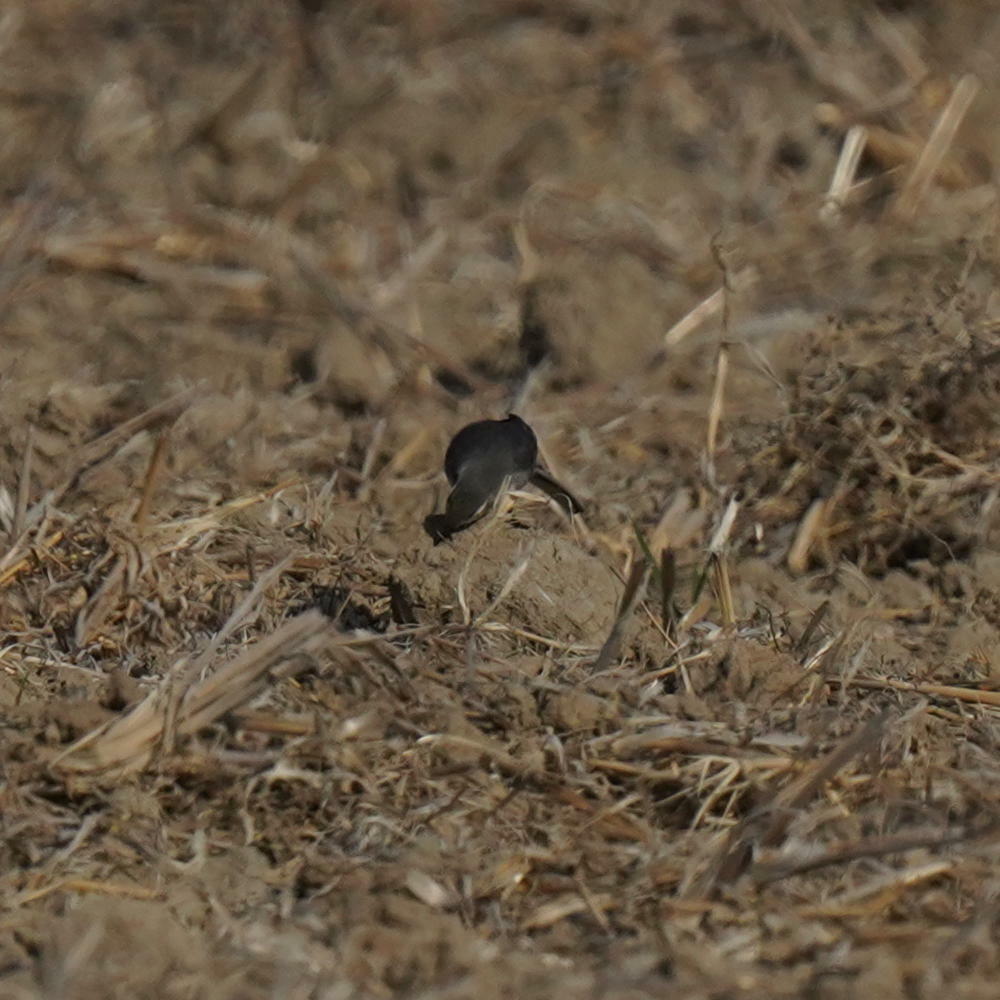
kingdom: Animalia
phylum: Chordata
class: Aves
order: Passeriformes
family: Motacillidae
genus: Motacilla
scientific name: Motacilla alba
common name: White wagtail
